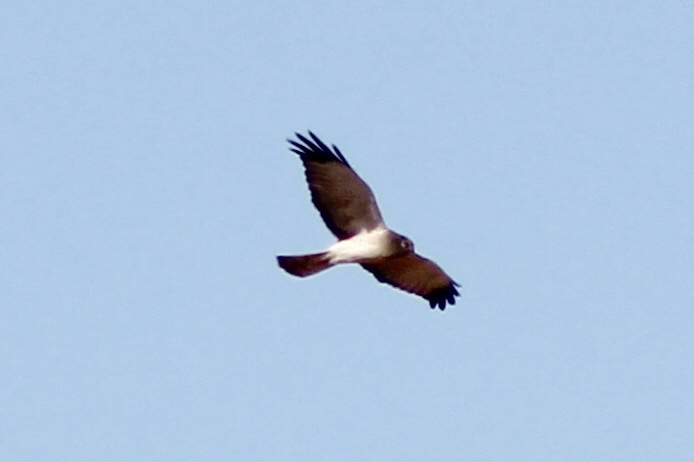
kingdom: Animalia
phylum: Chordata
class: Aves
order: Accipitriformes
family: Accipitridae
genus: Circus
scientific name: Circus cyaneus
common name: Hen harrier
